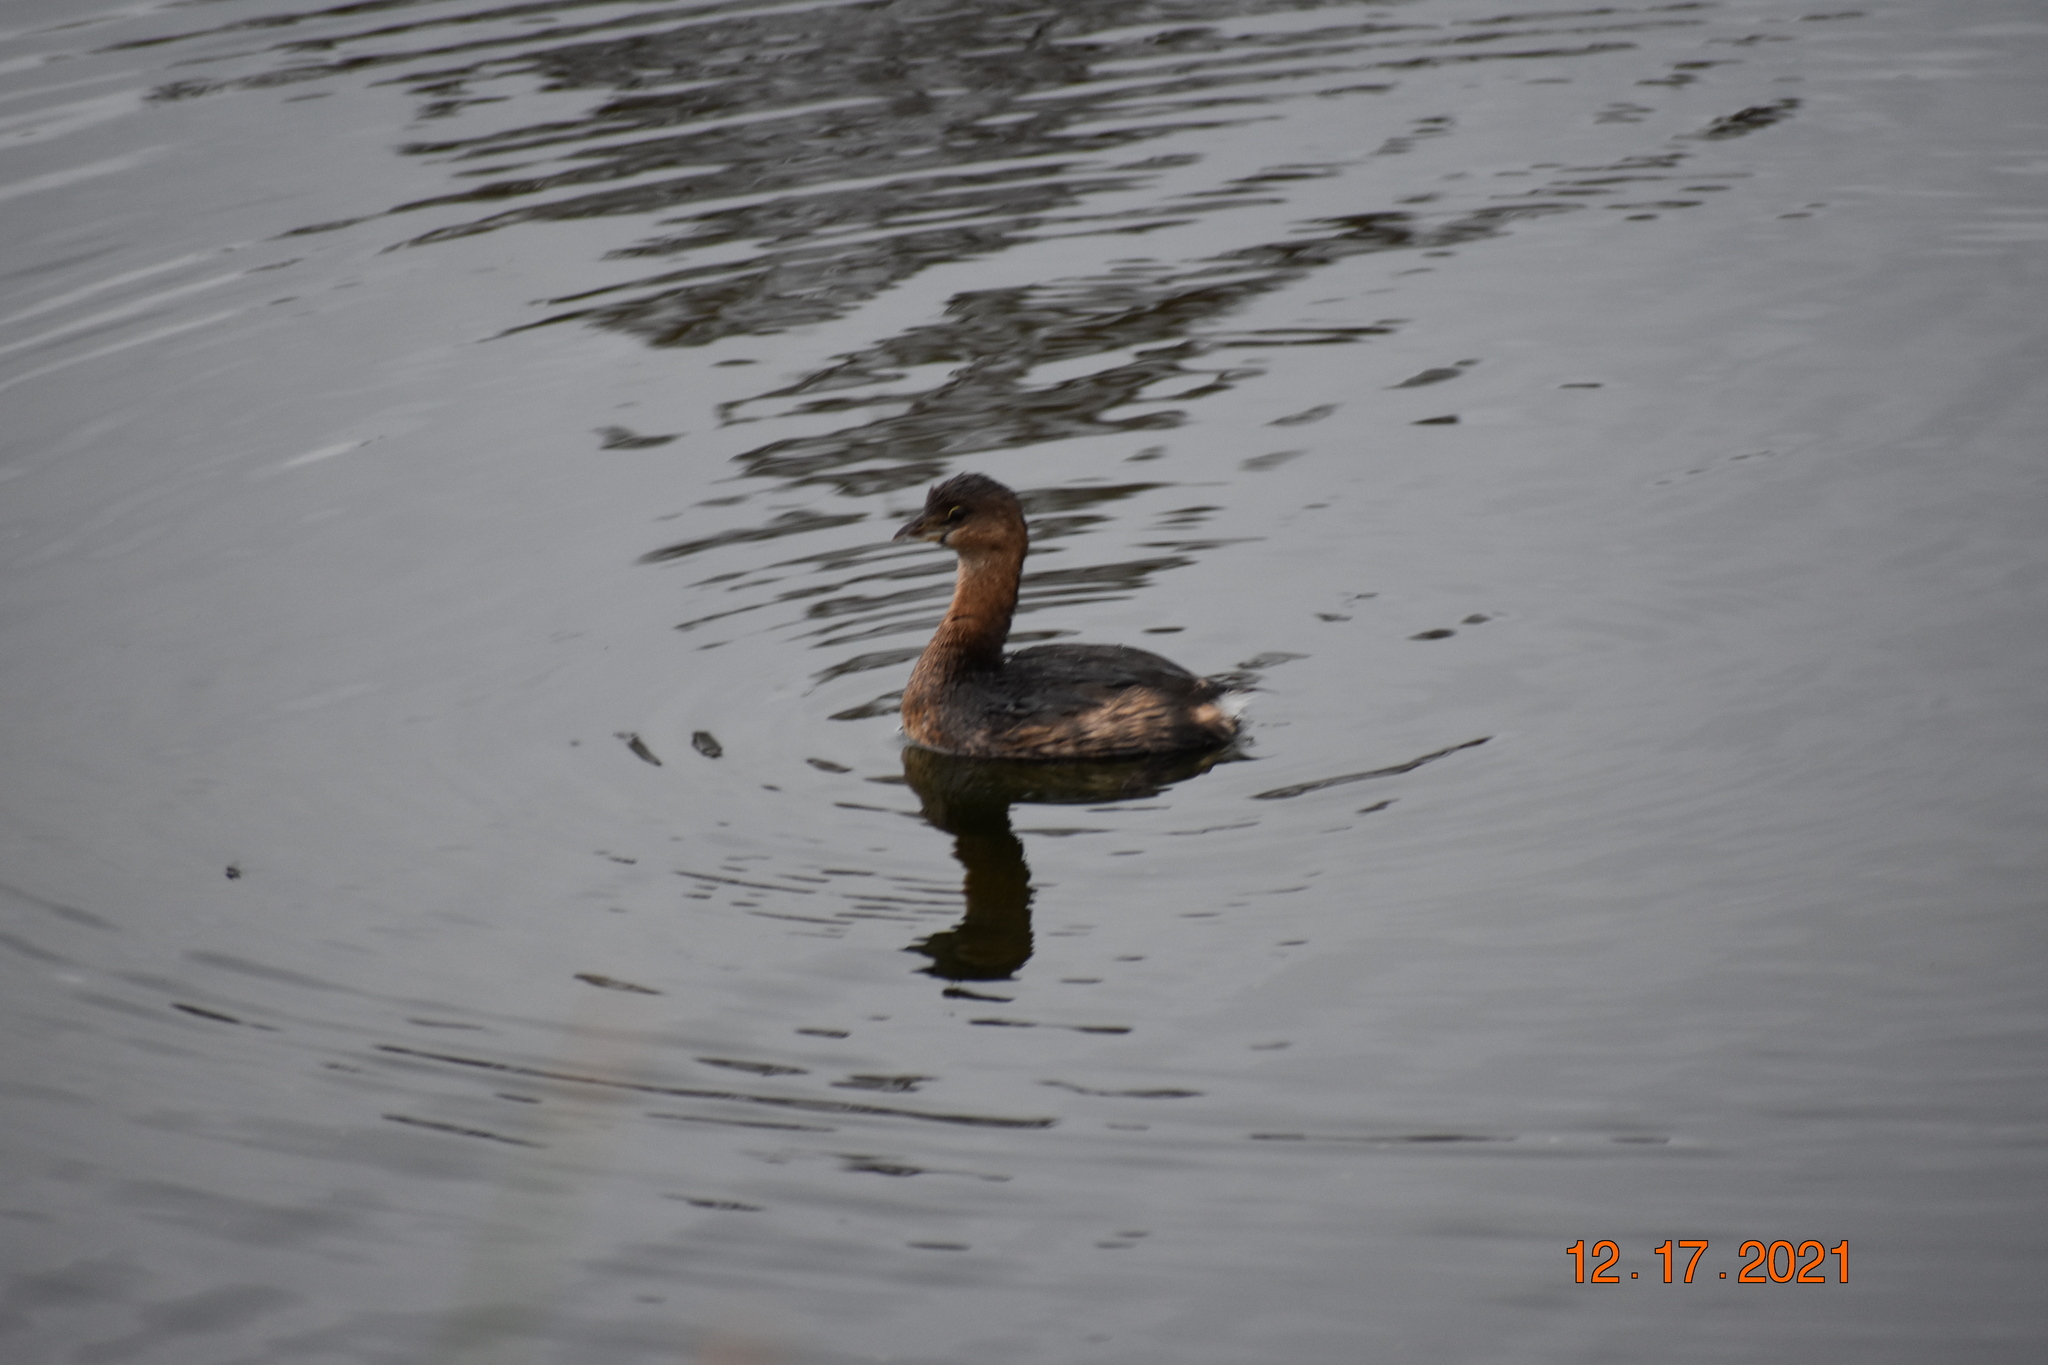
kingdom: Animalia
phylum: Chordata
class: Aves
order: Podicipediformes
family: Podicipedidae
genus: Podilymbus
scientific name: Podilymbus podiceps
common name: Pied-billed grebe
